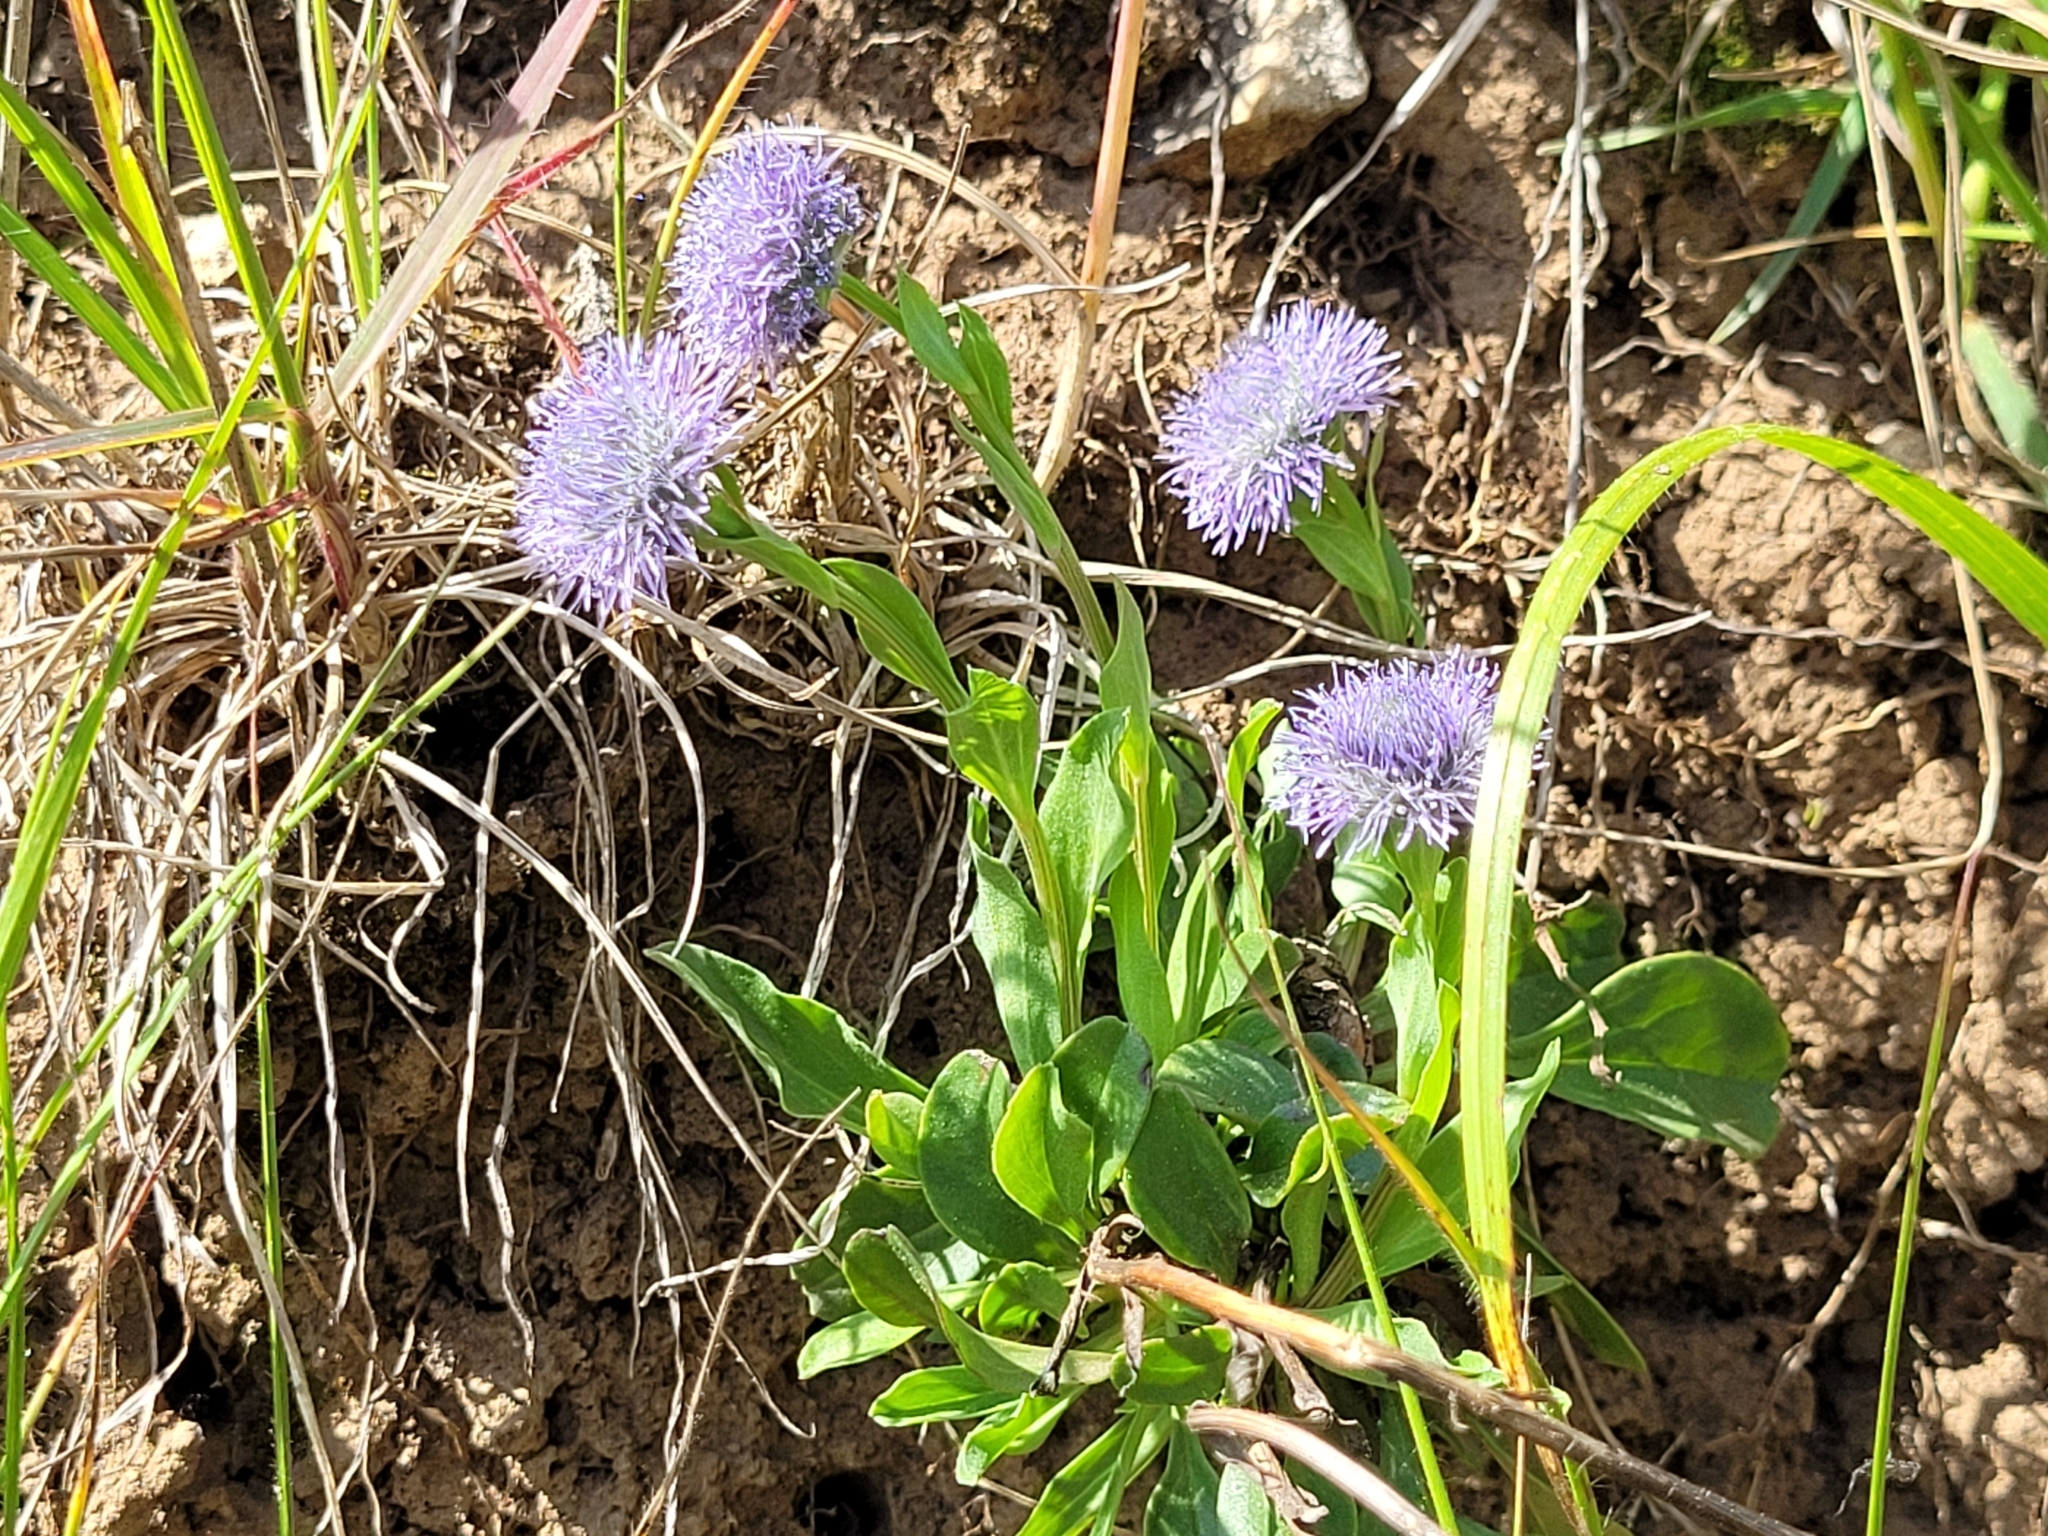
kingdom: Plantae
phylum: Tracheophyta
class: Magnoliopsida
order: Lamiales
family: Plantaginaceae
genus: Globularia
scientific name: Globularia bisnagarica
